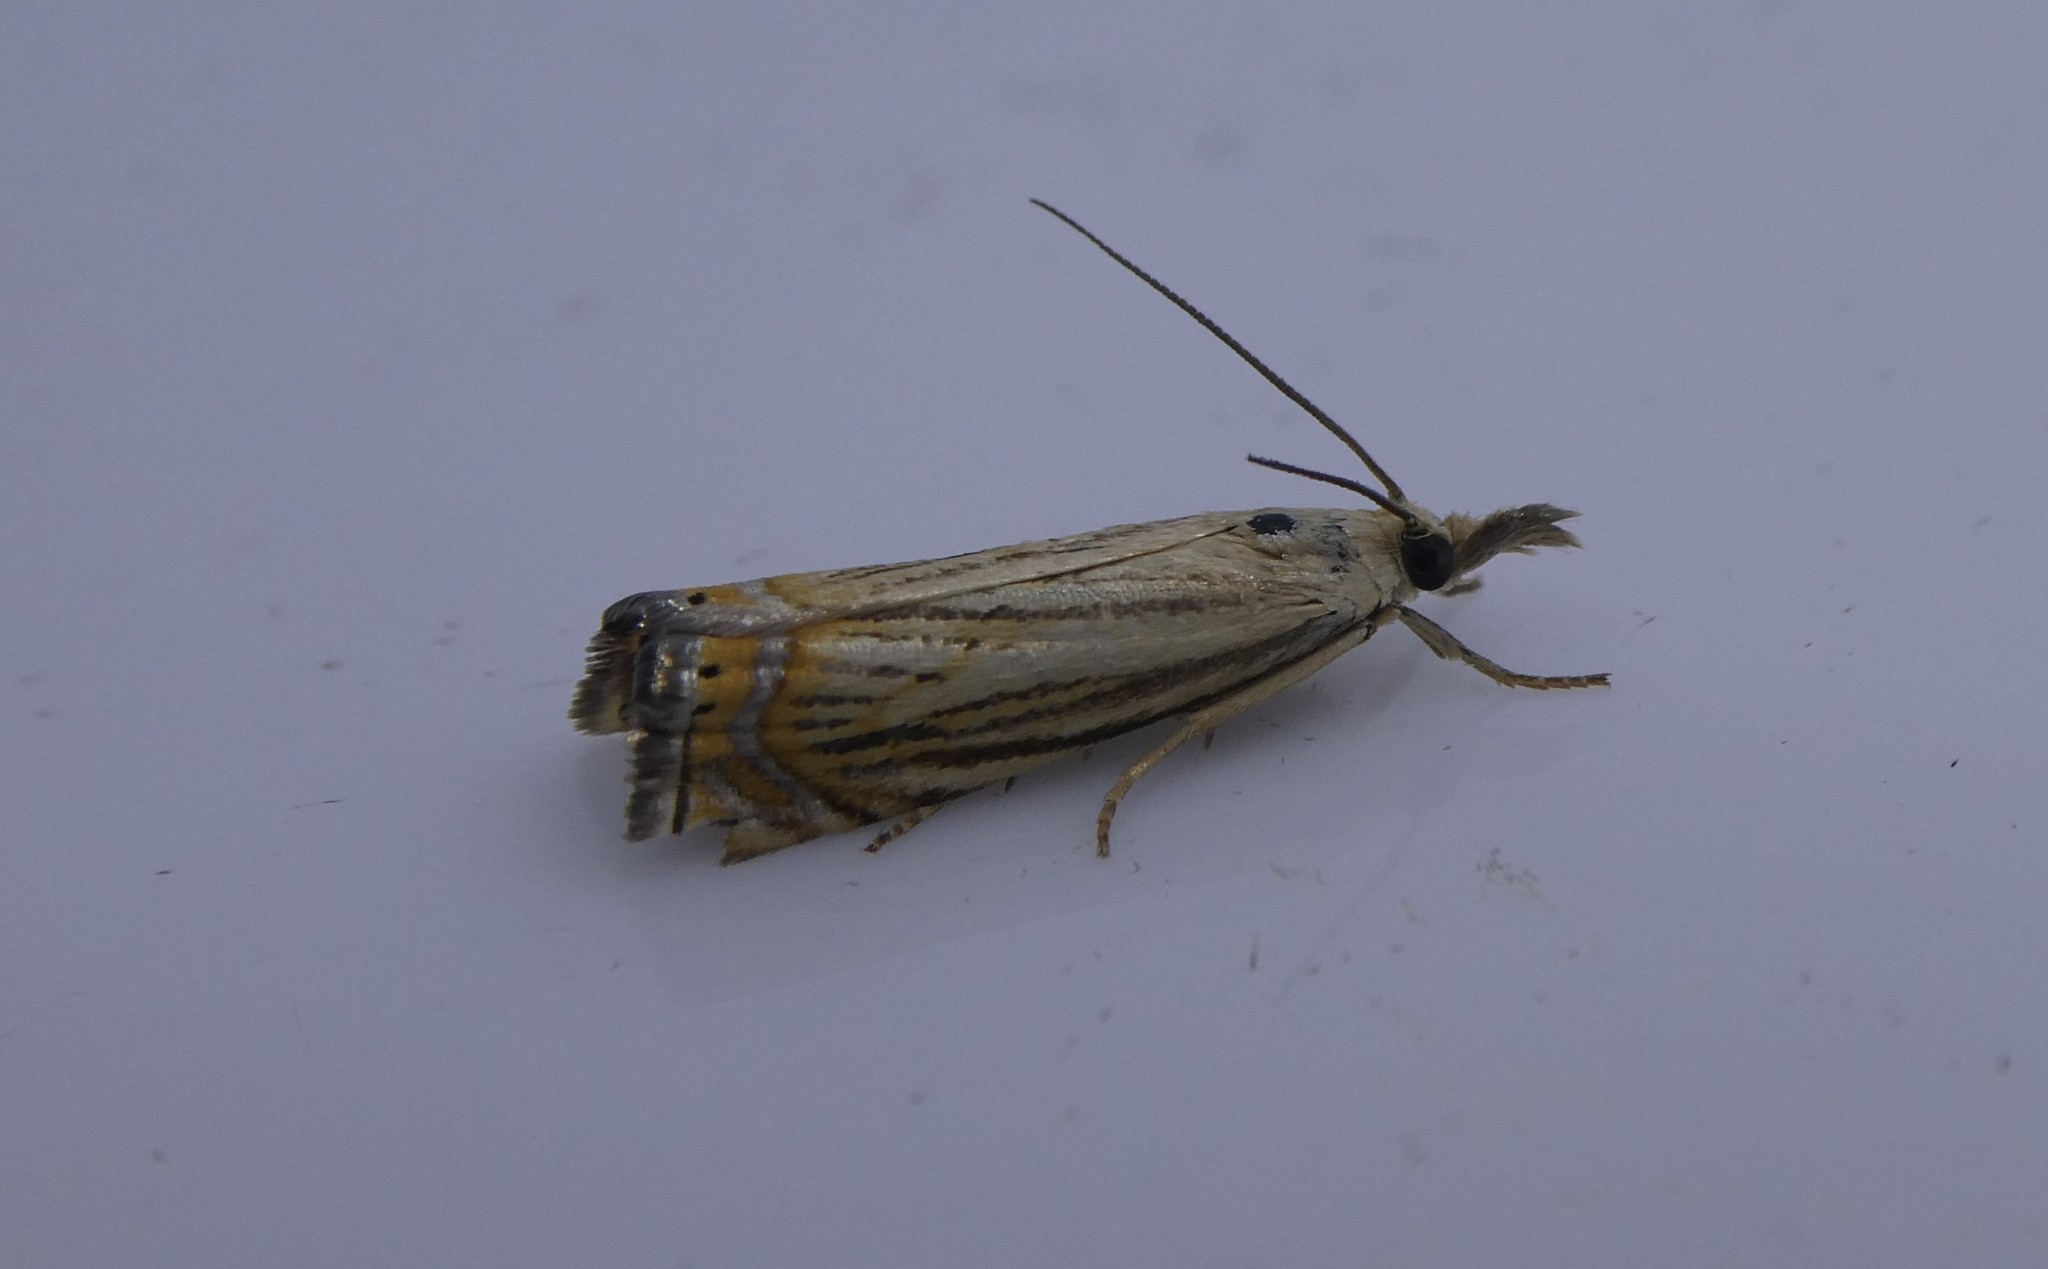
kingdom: Animalia
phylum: Arthropoda
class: Insecta
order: Lepidoptera
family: Crambidae
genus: Chrysoteuchia
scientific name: Chrysoteuchia topiarius
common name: Topiary grass-veneer
